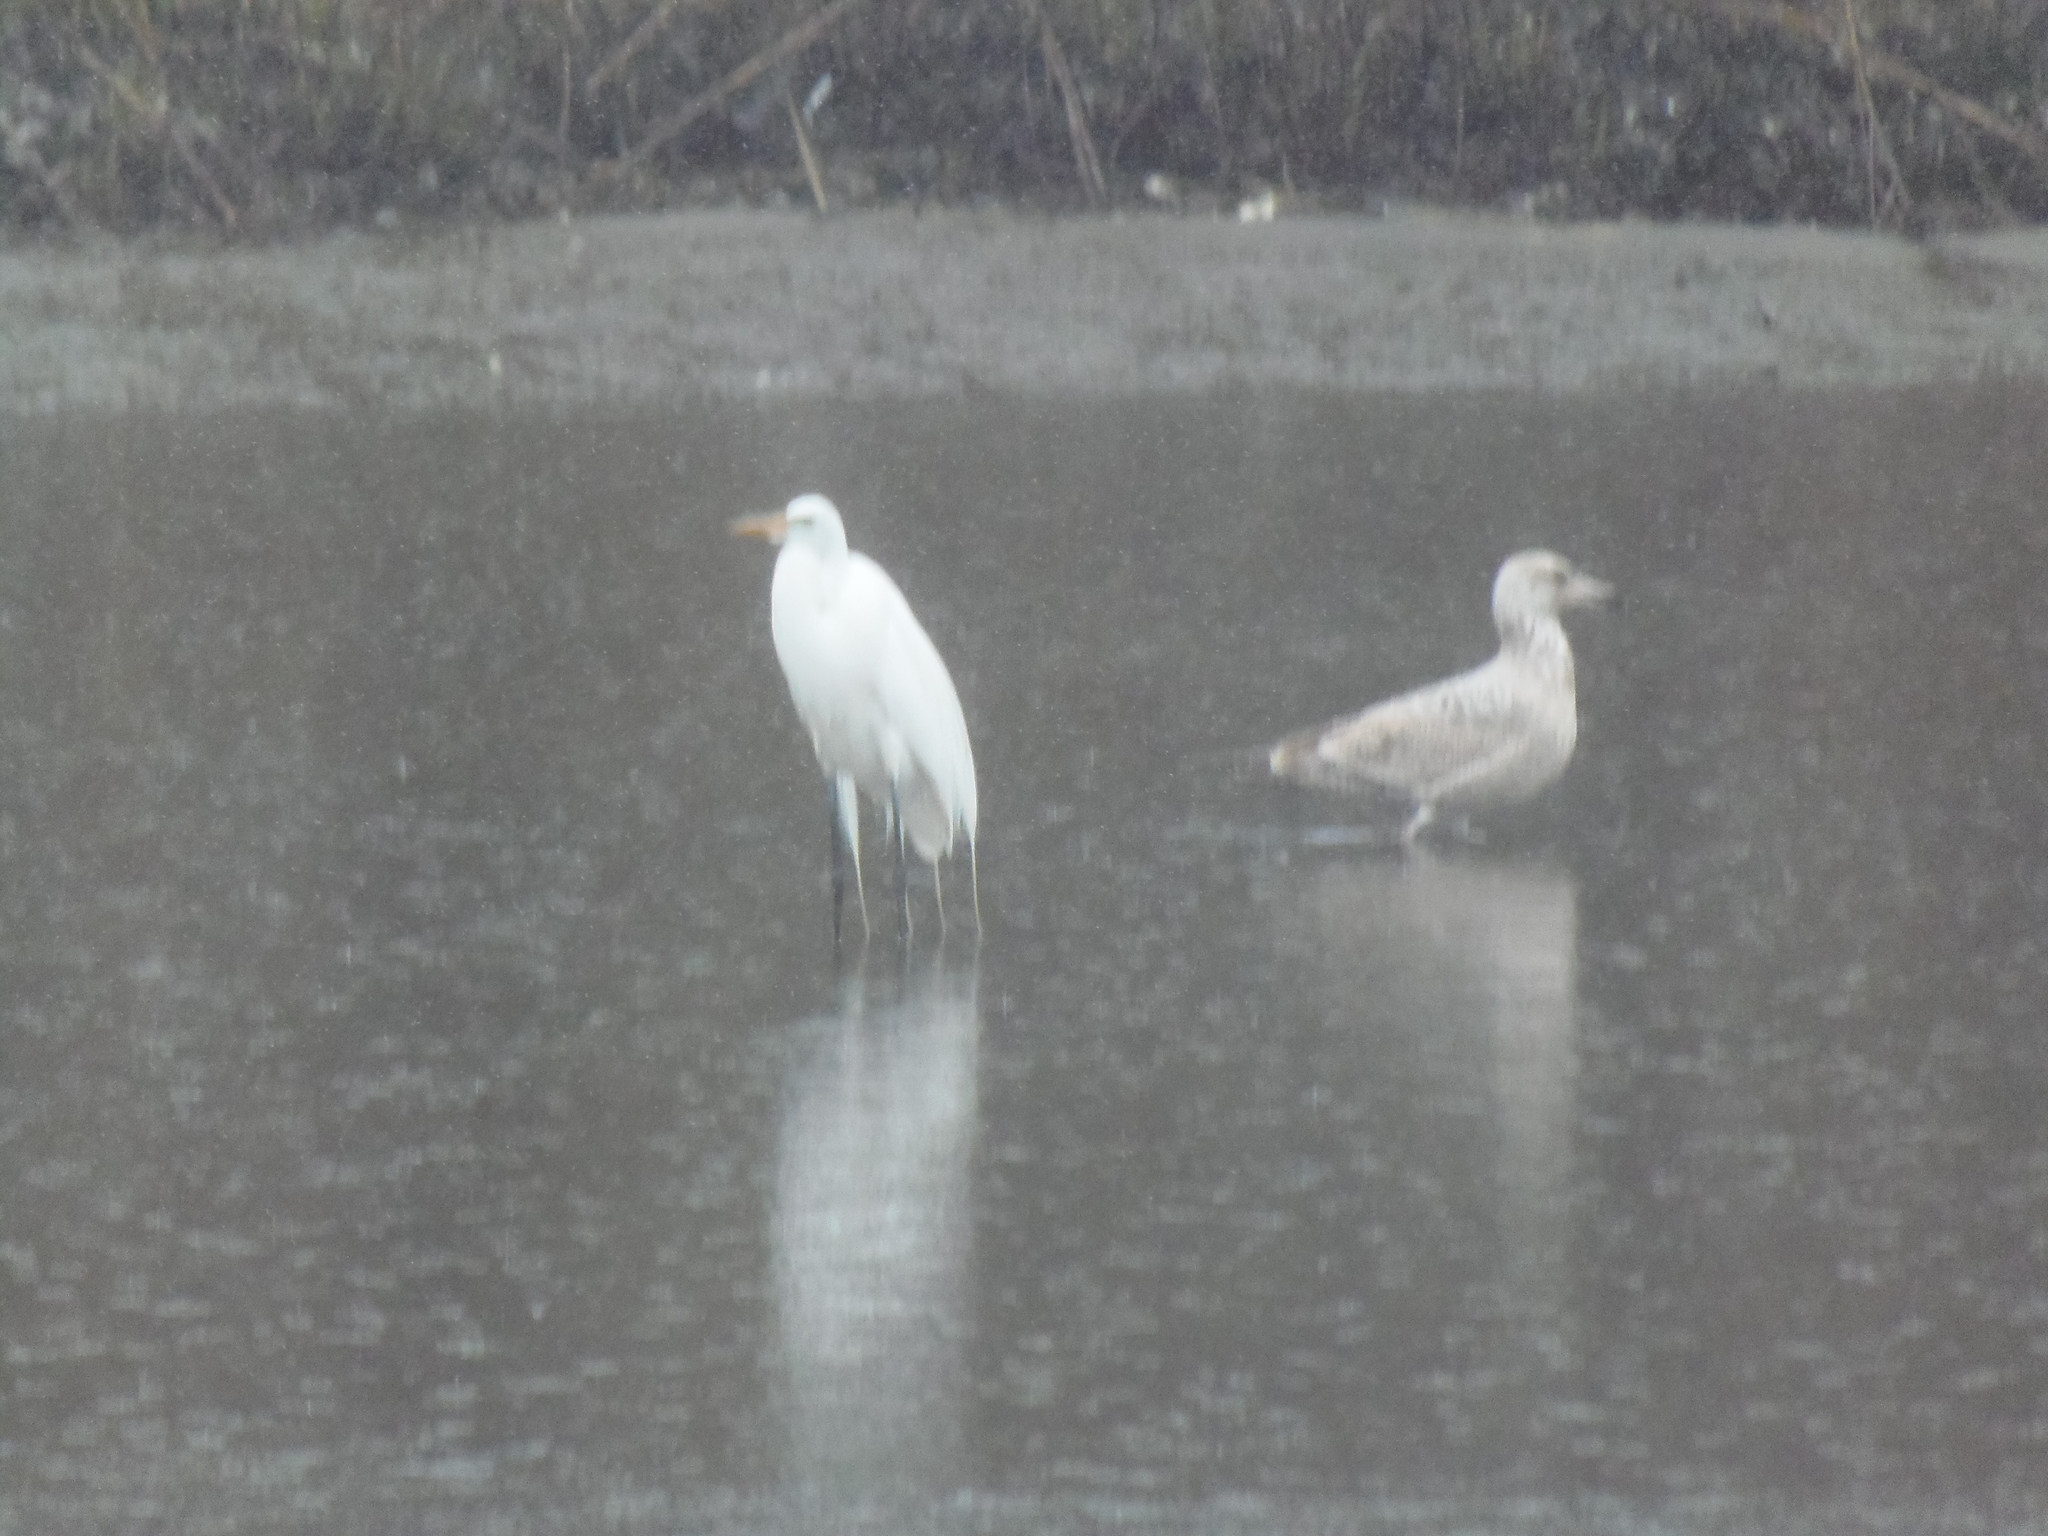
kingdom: Animalia
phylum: Chordata
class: Aves
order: Pelecaniformes
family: Ardeidae
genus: Ardea
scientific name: Ardea alba
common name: Great egret
